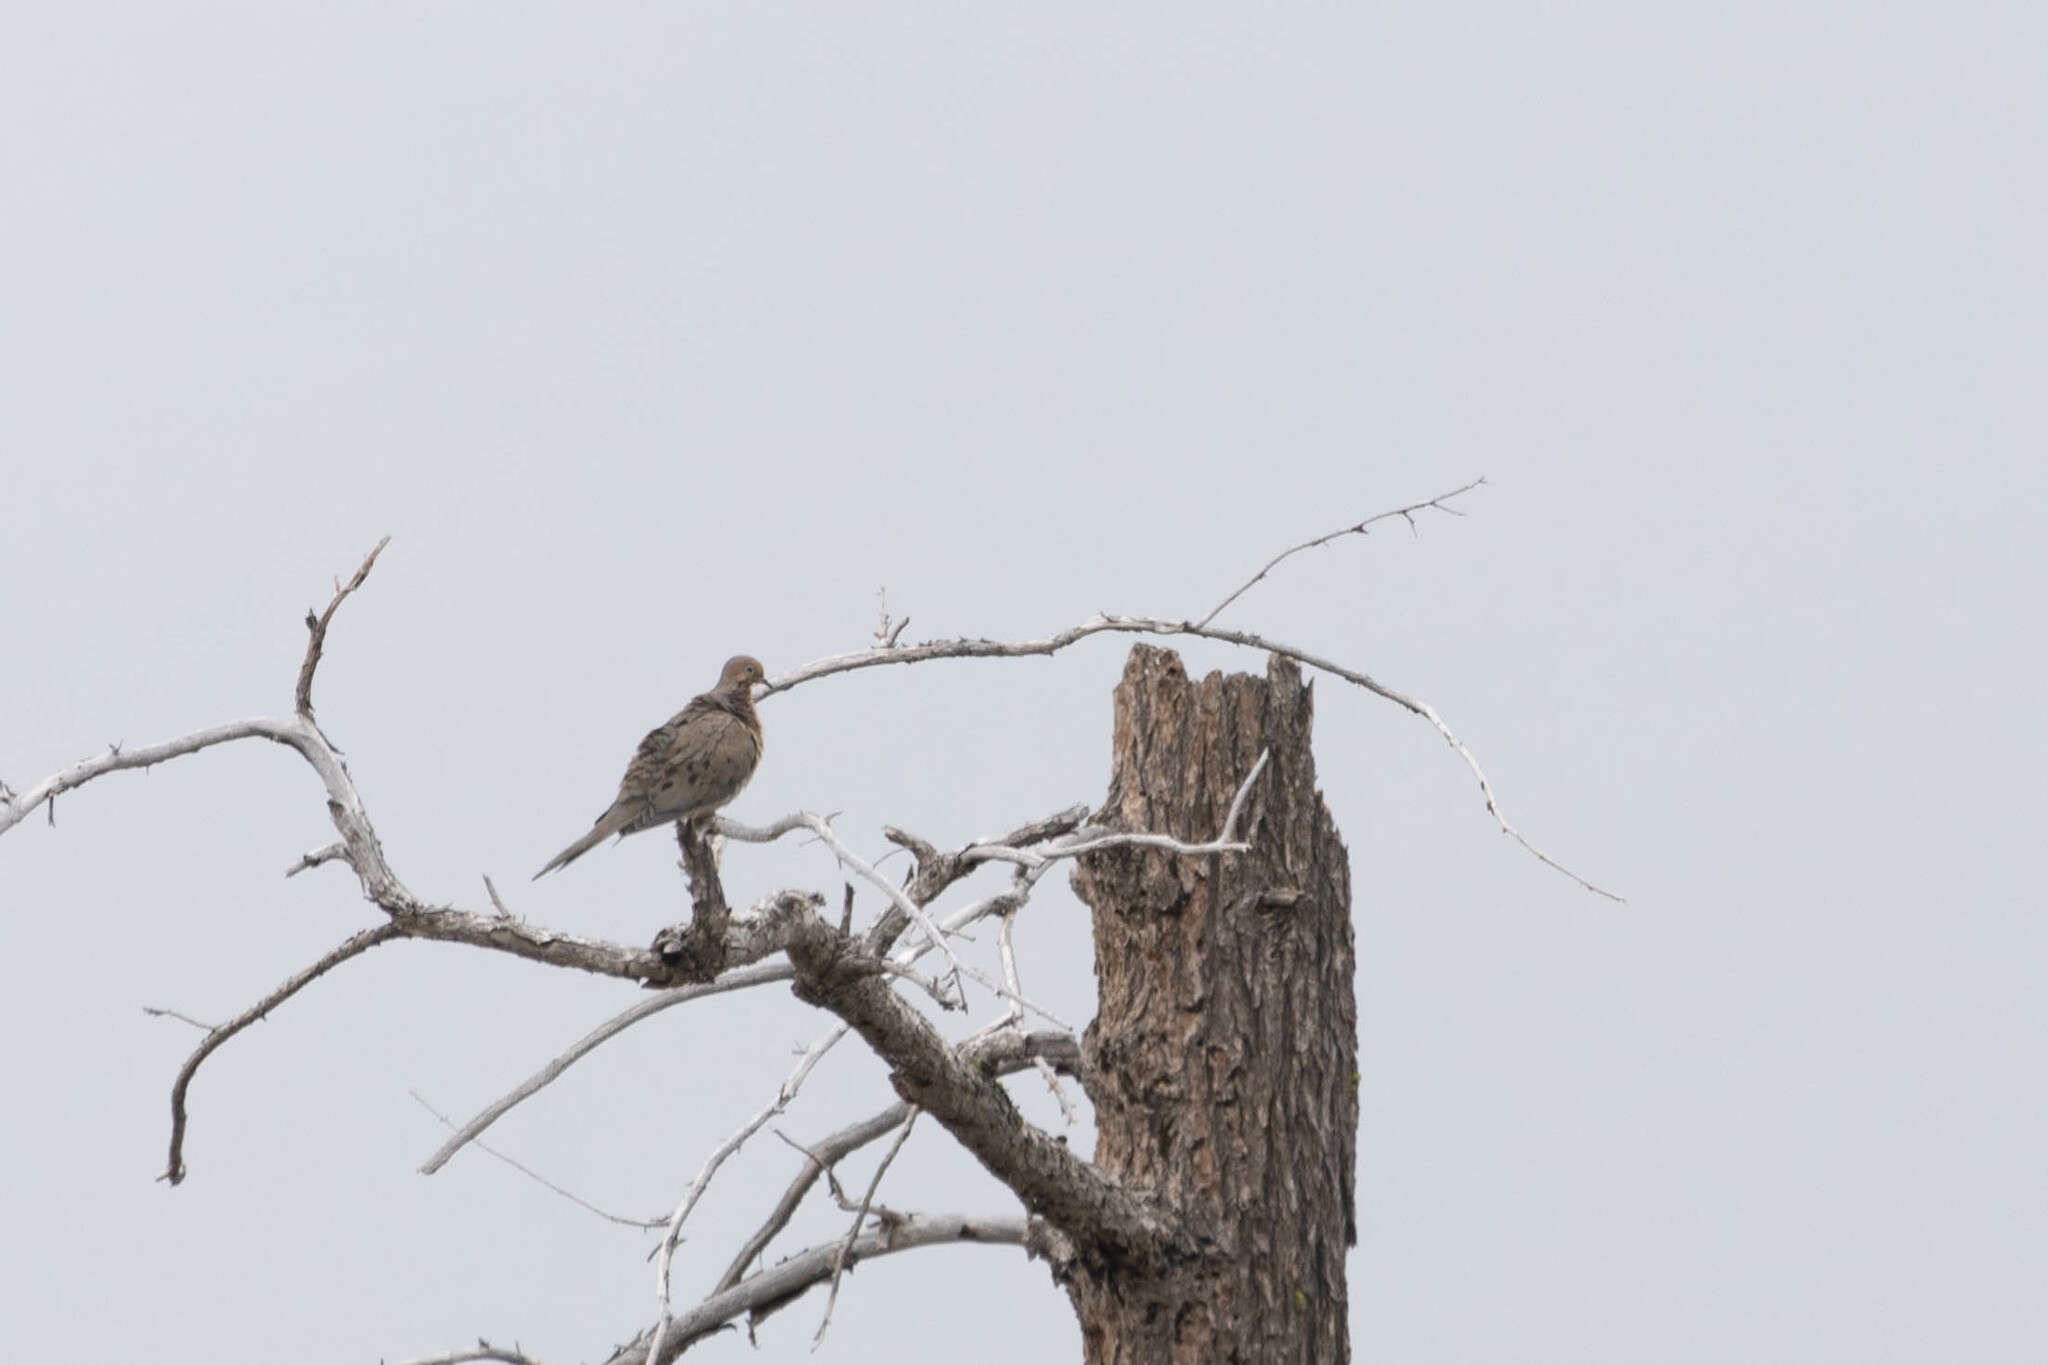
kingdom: Animalia
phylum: Chordata
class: Aves
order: Columbiformes
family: Columbidae
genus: Zenaida
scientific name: Zenaida macroura
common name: Mourning dove
